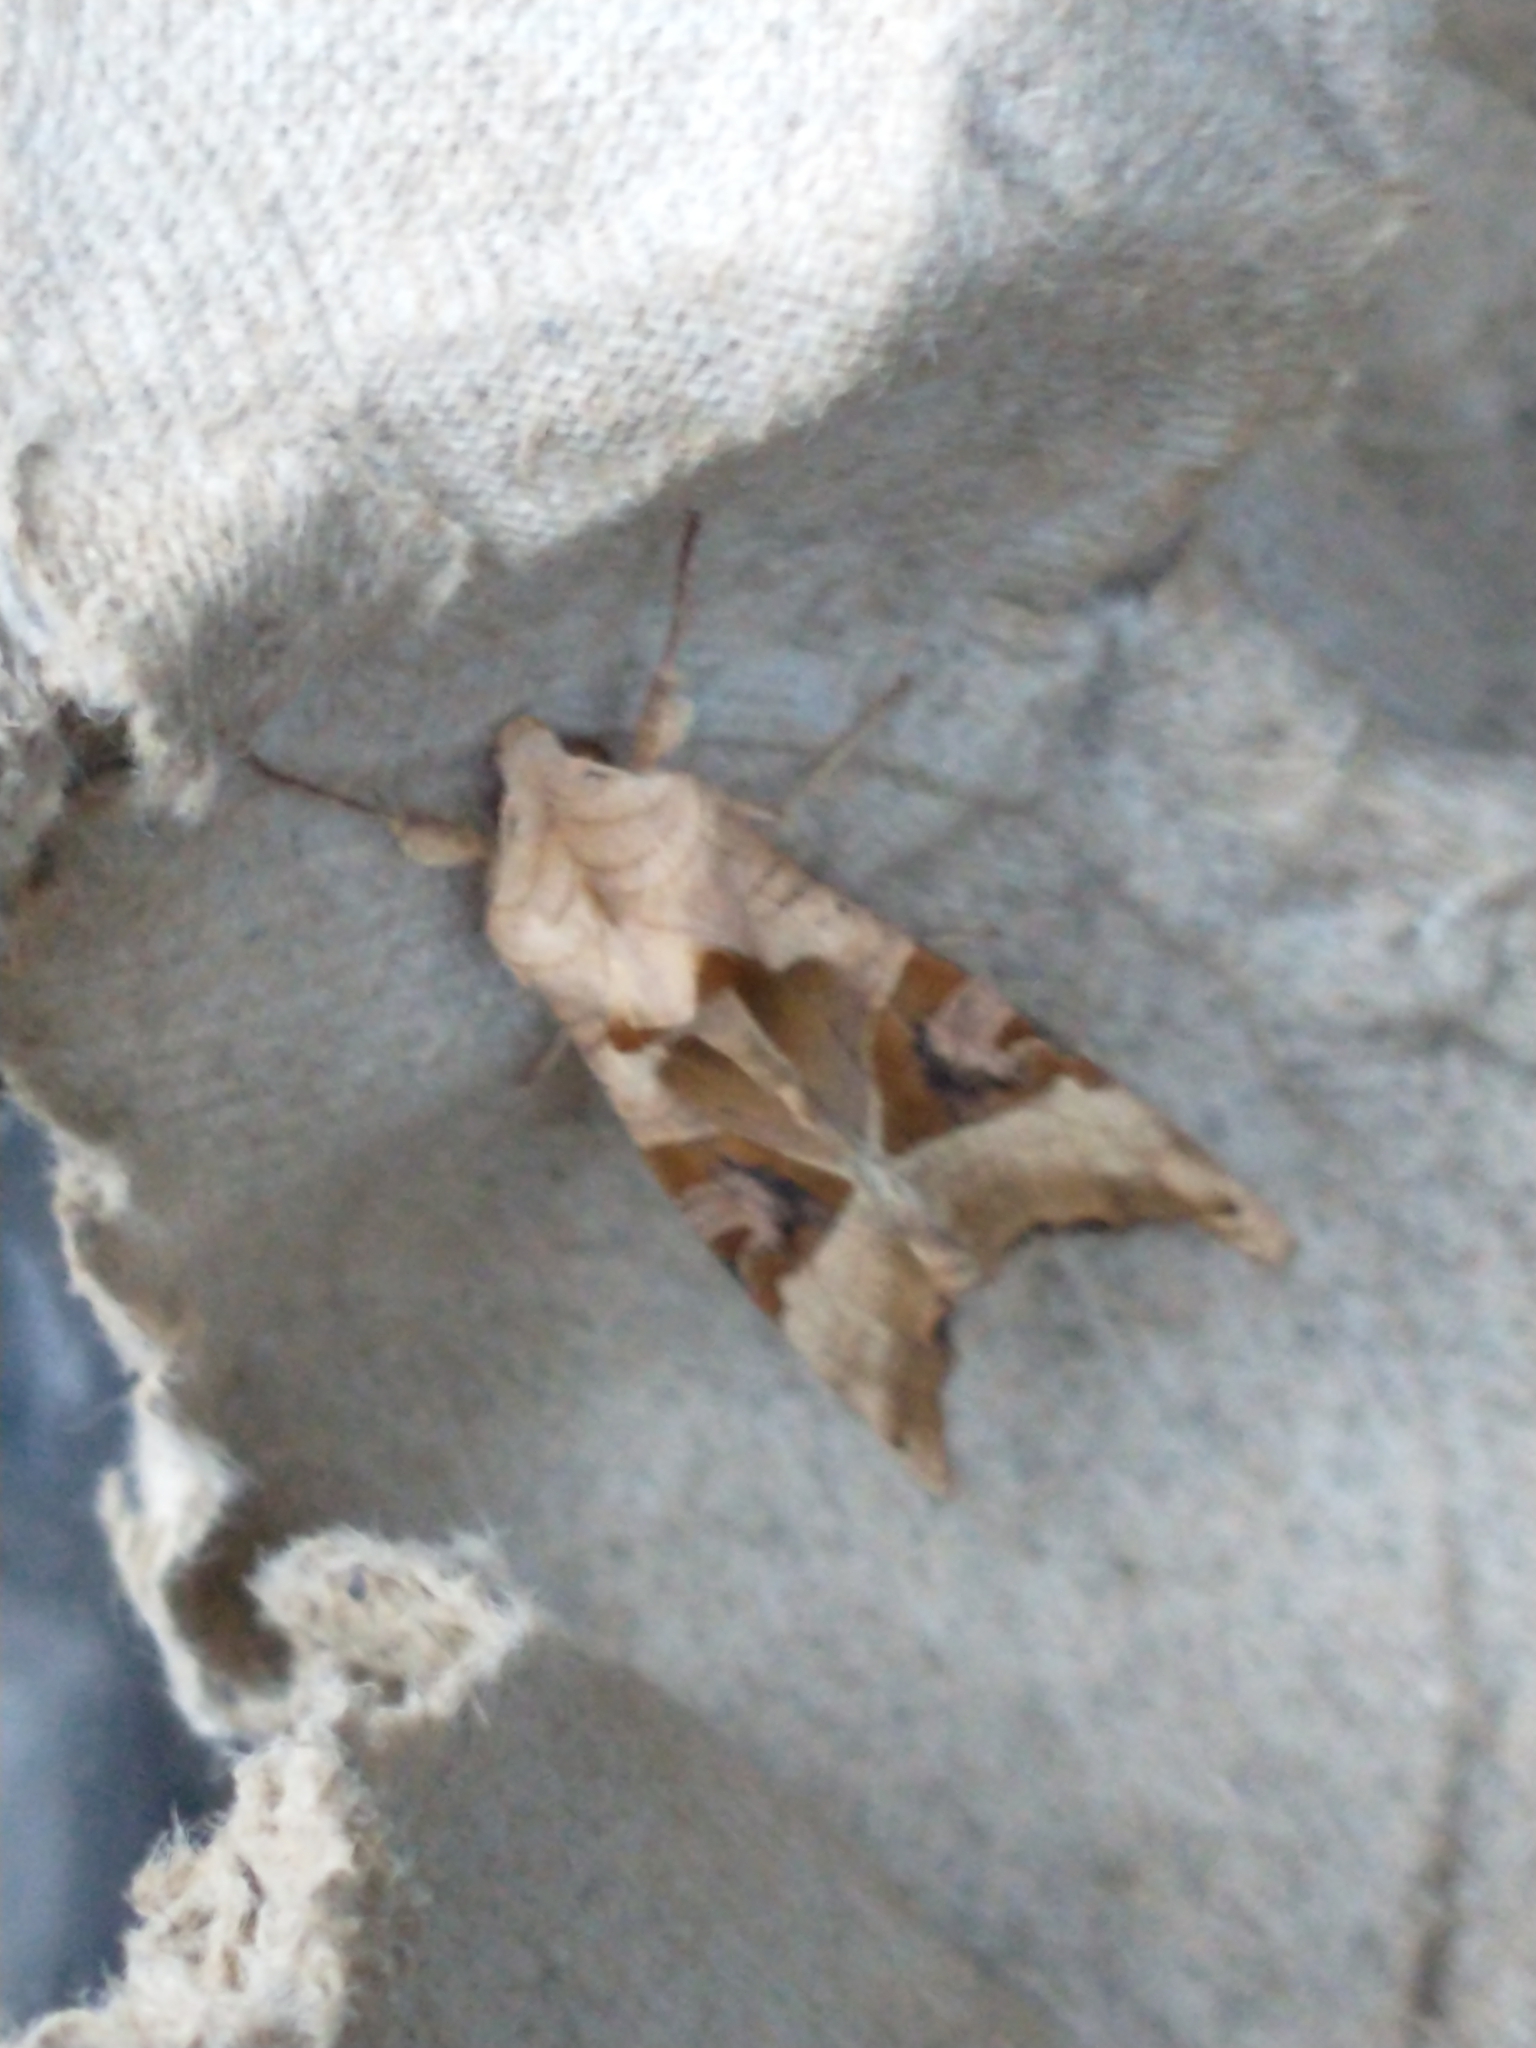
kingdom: Animalia
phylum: Arthropoda
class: Insecta
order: Lepidoptera
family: Noctuidae
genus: Phlogophora
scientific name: Phlogophora meticulosa
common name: Angle shades
